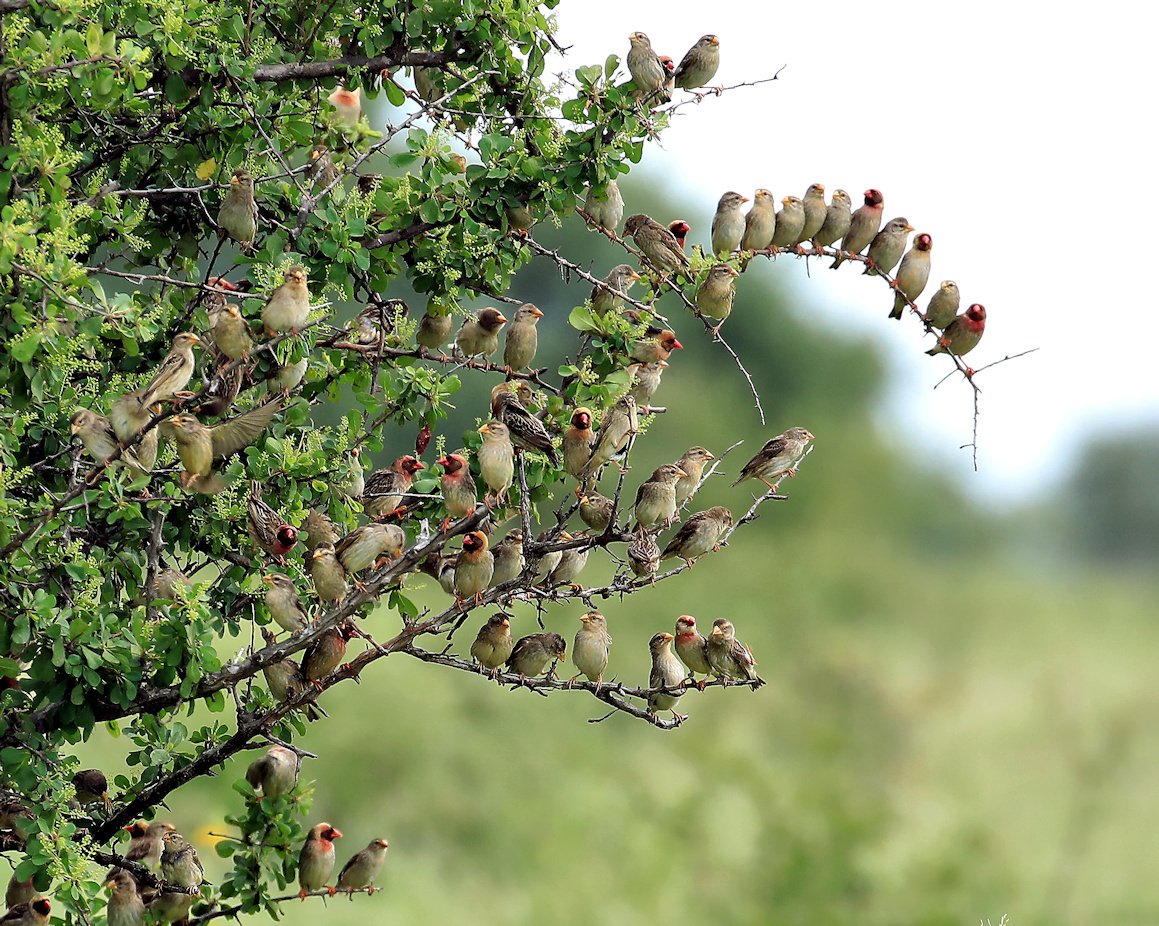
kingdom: Animalia
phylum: Chordata
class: Aves
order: Passeriformes
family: Ploceidae
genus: Quelea
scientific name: Quelea quelea
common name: Red-billed quelea
